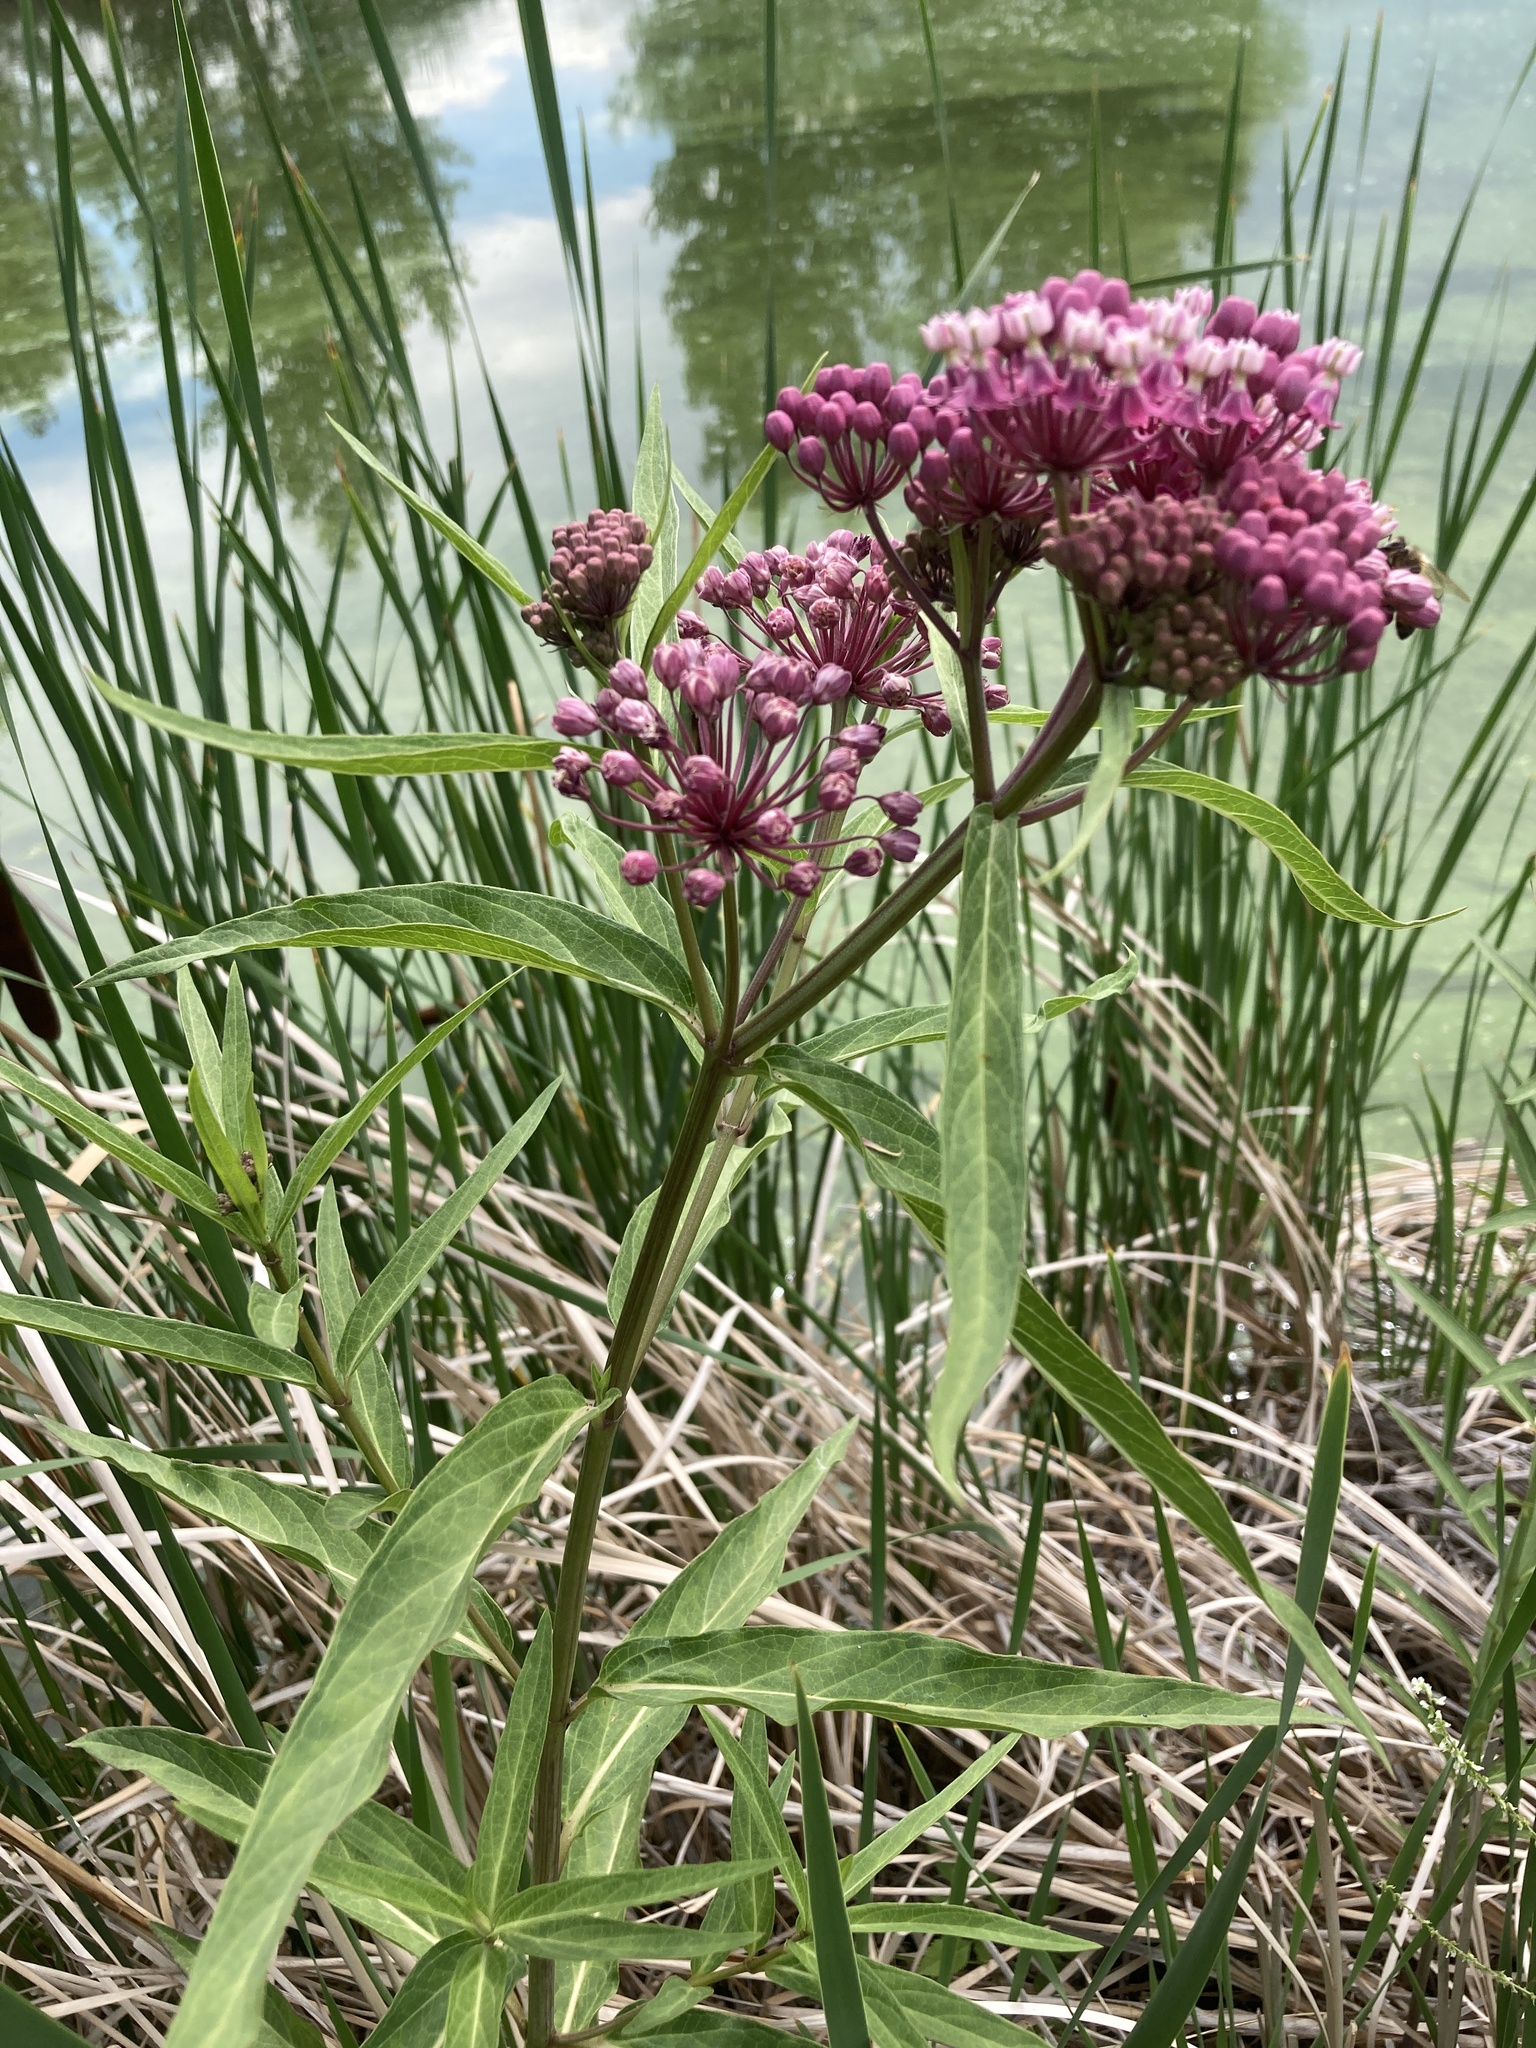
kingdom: Plantae
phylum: Tracheophyta
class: Magnoliopsida
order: Gentianales
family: Apocynaceae
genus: Asclepias
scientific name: Asclepias incarnata
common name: Swamp milkweed
